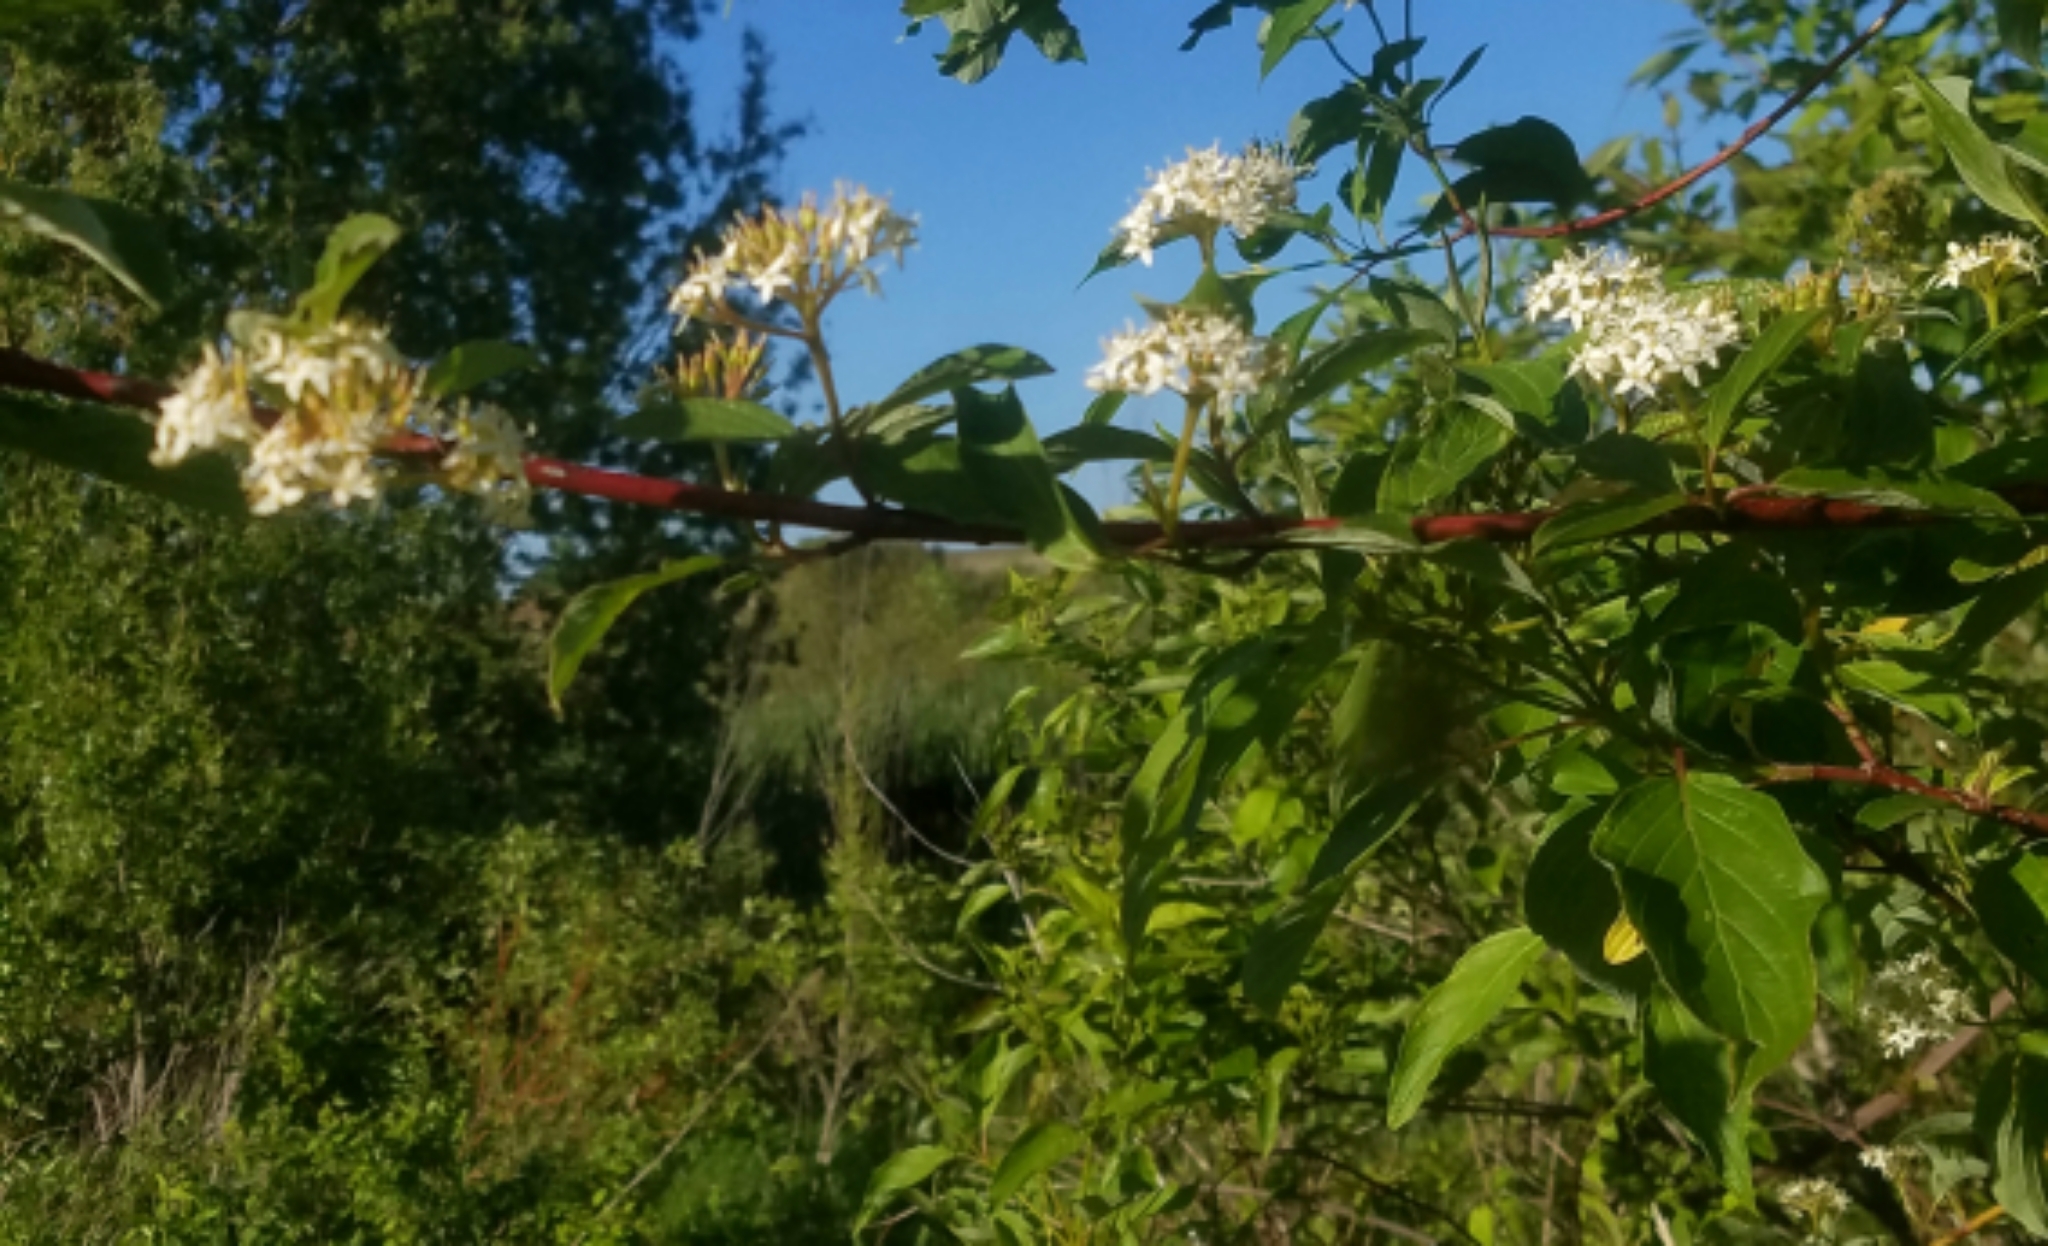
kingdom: Plantae
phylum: Tracheophyta
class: Magnoliopsida
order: Cornales
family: Cornaceae
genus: Cornus
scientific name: Cornus sericea
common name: Red-osier dogwood
